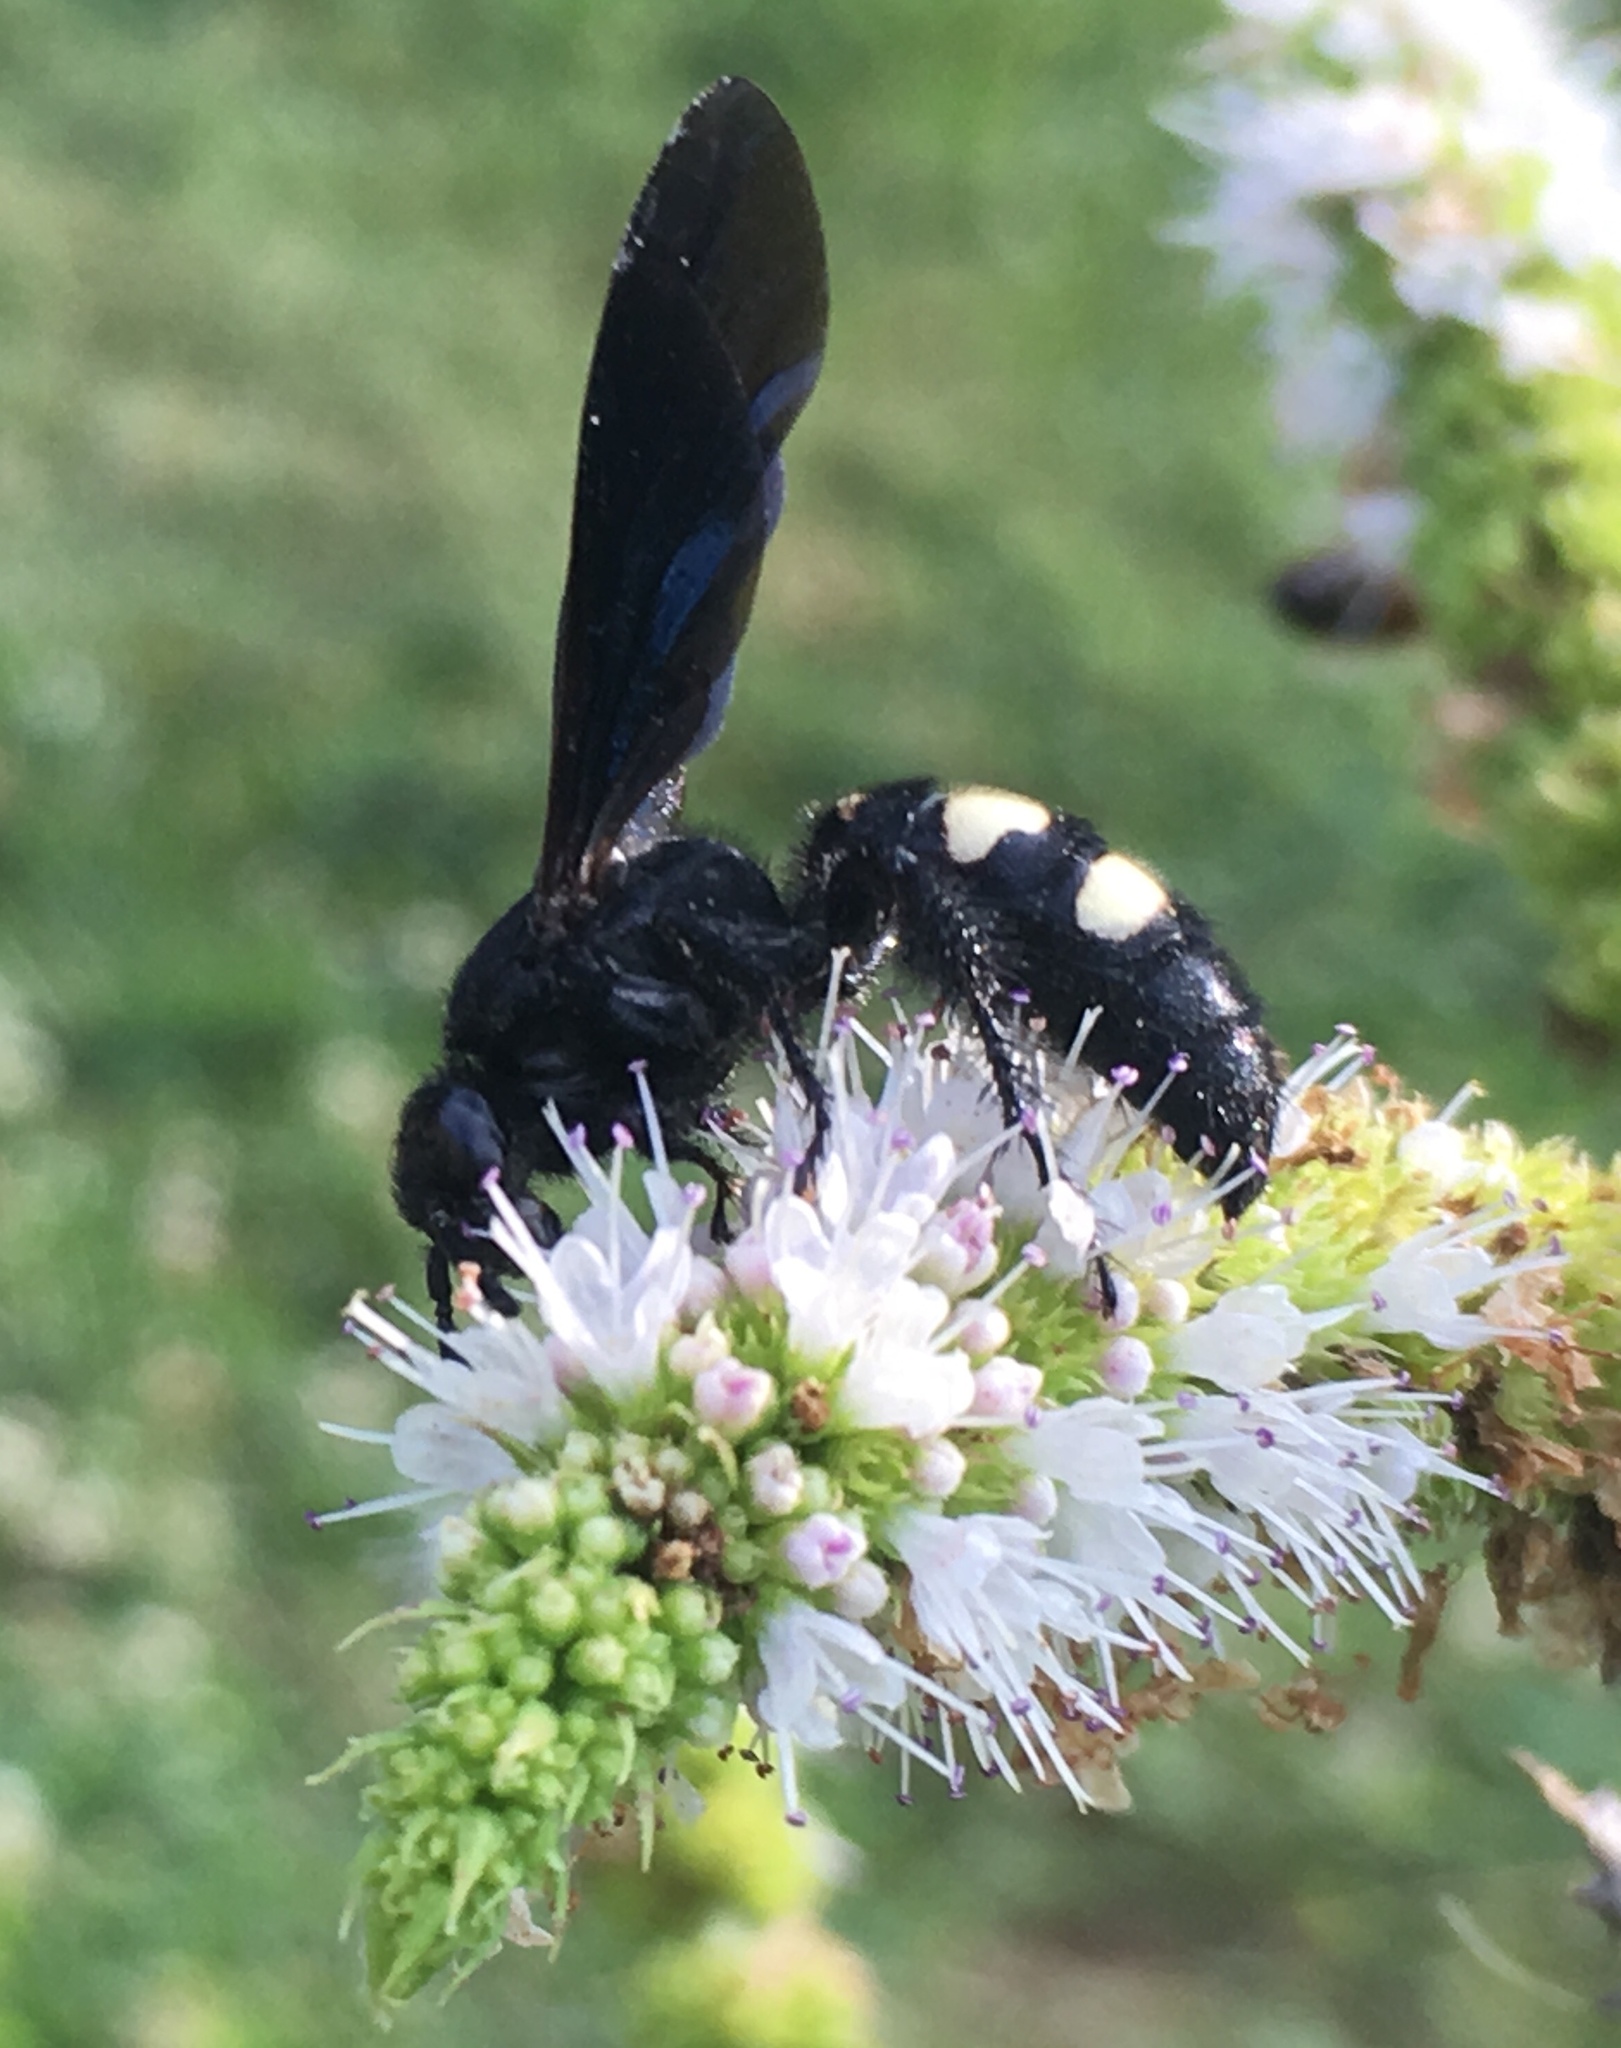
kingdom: Animalia
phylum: Arthropoda
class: Insecta
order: Hymenoptera
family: Scoliidae
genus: Scolia
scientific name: Scolia bicincta
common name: Double-banded scoliid wasp
